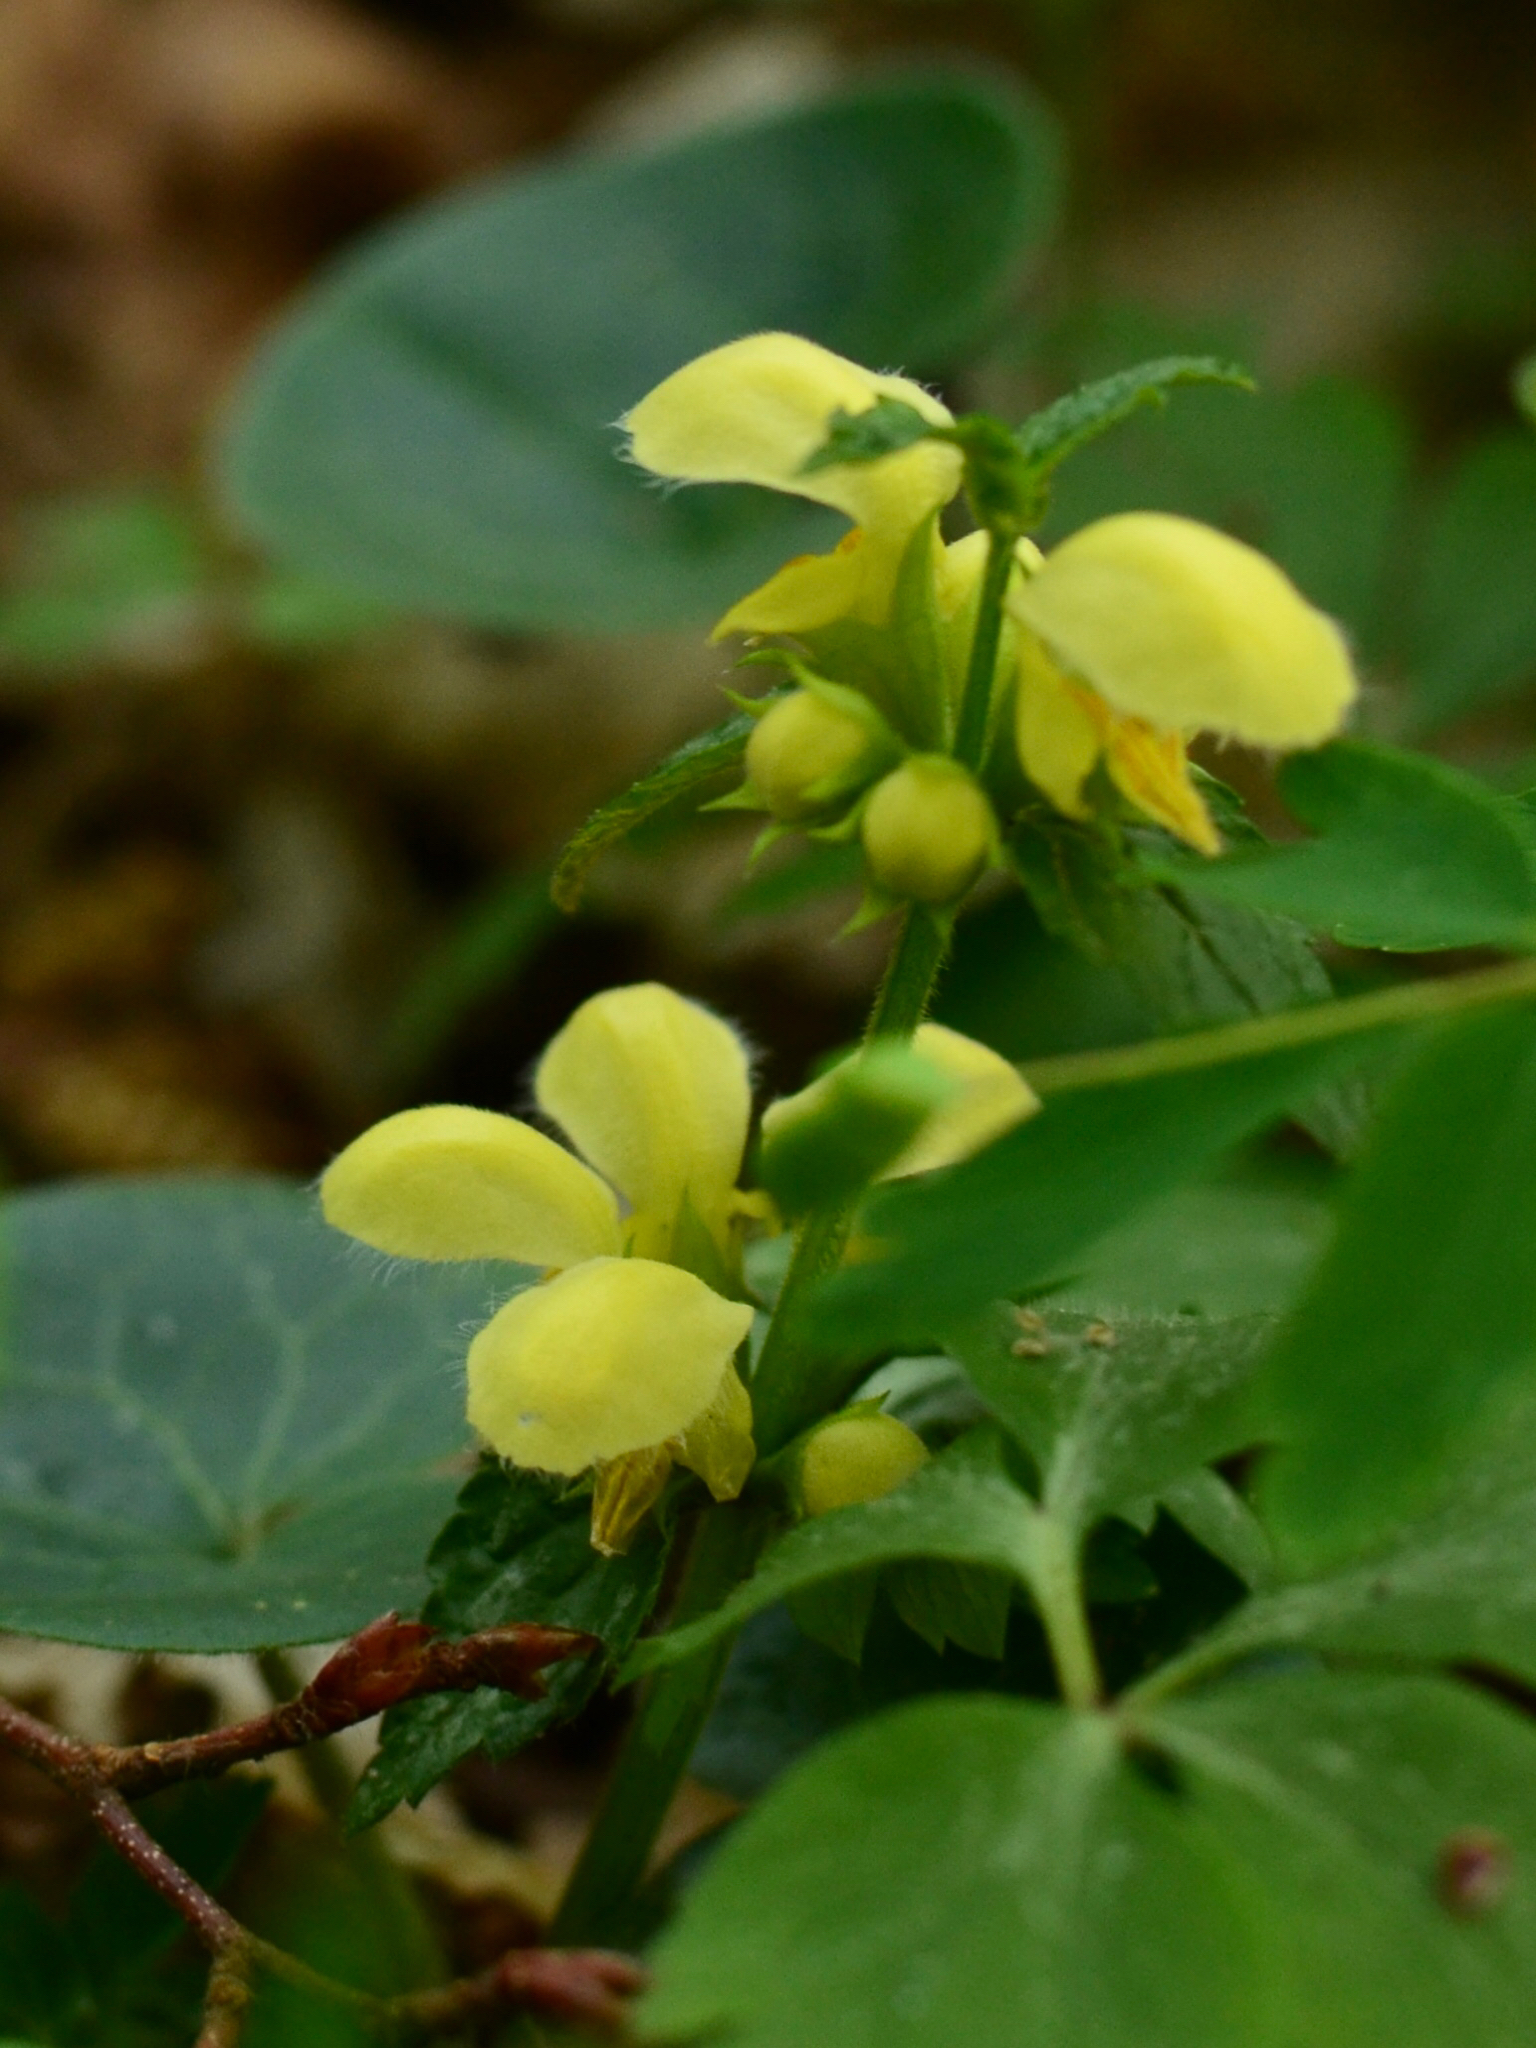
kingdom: Plantae
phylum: Tracheophyta
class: Magnoliopsida
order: Lamiales
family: Lamiaceae
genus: Lamium
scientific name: Lamium galeobdolon
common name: Yellow archangel
